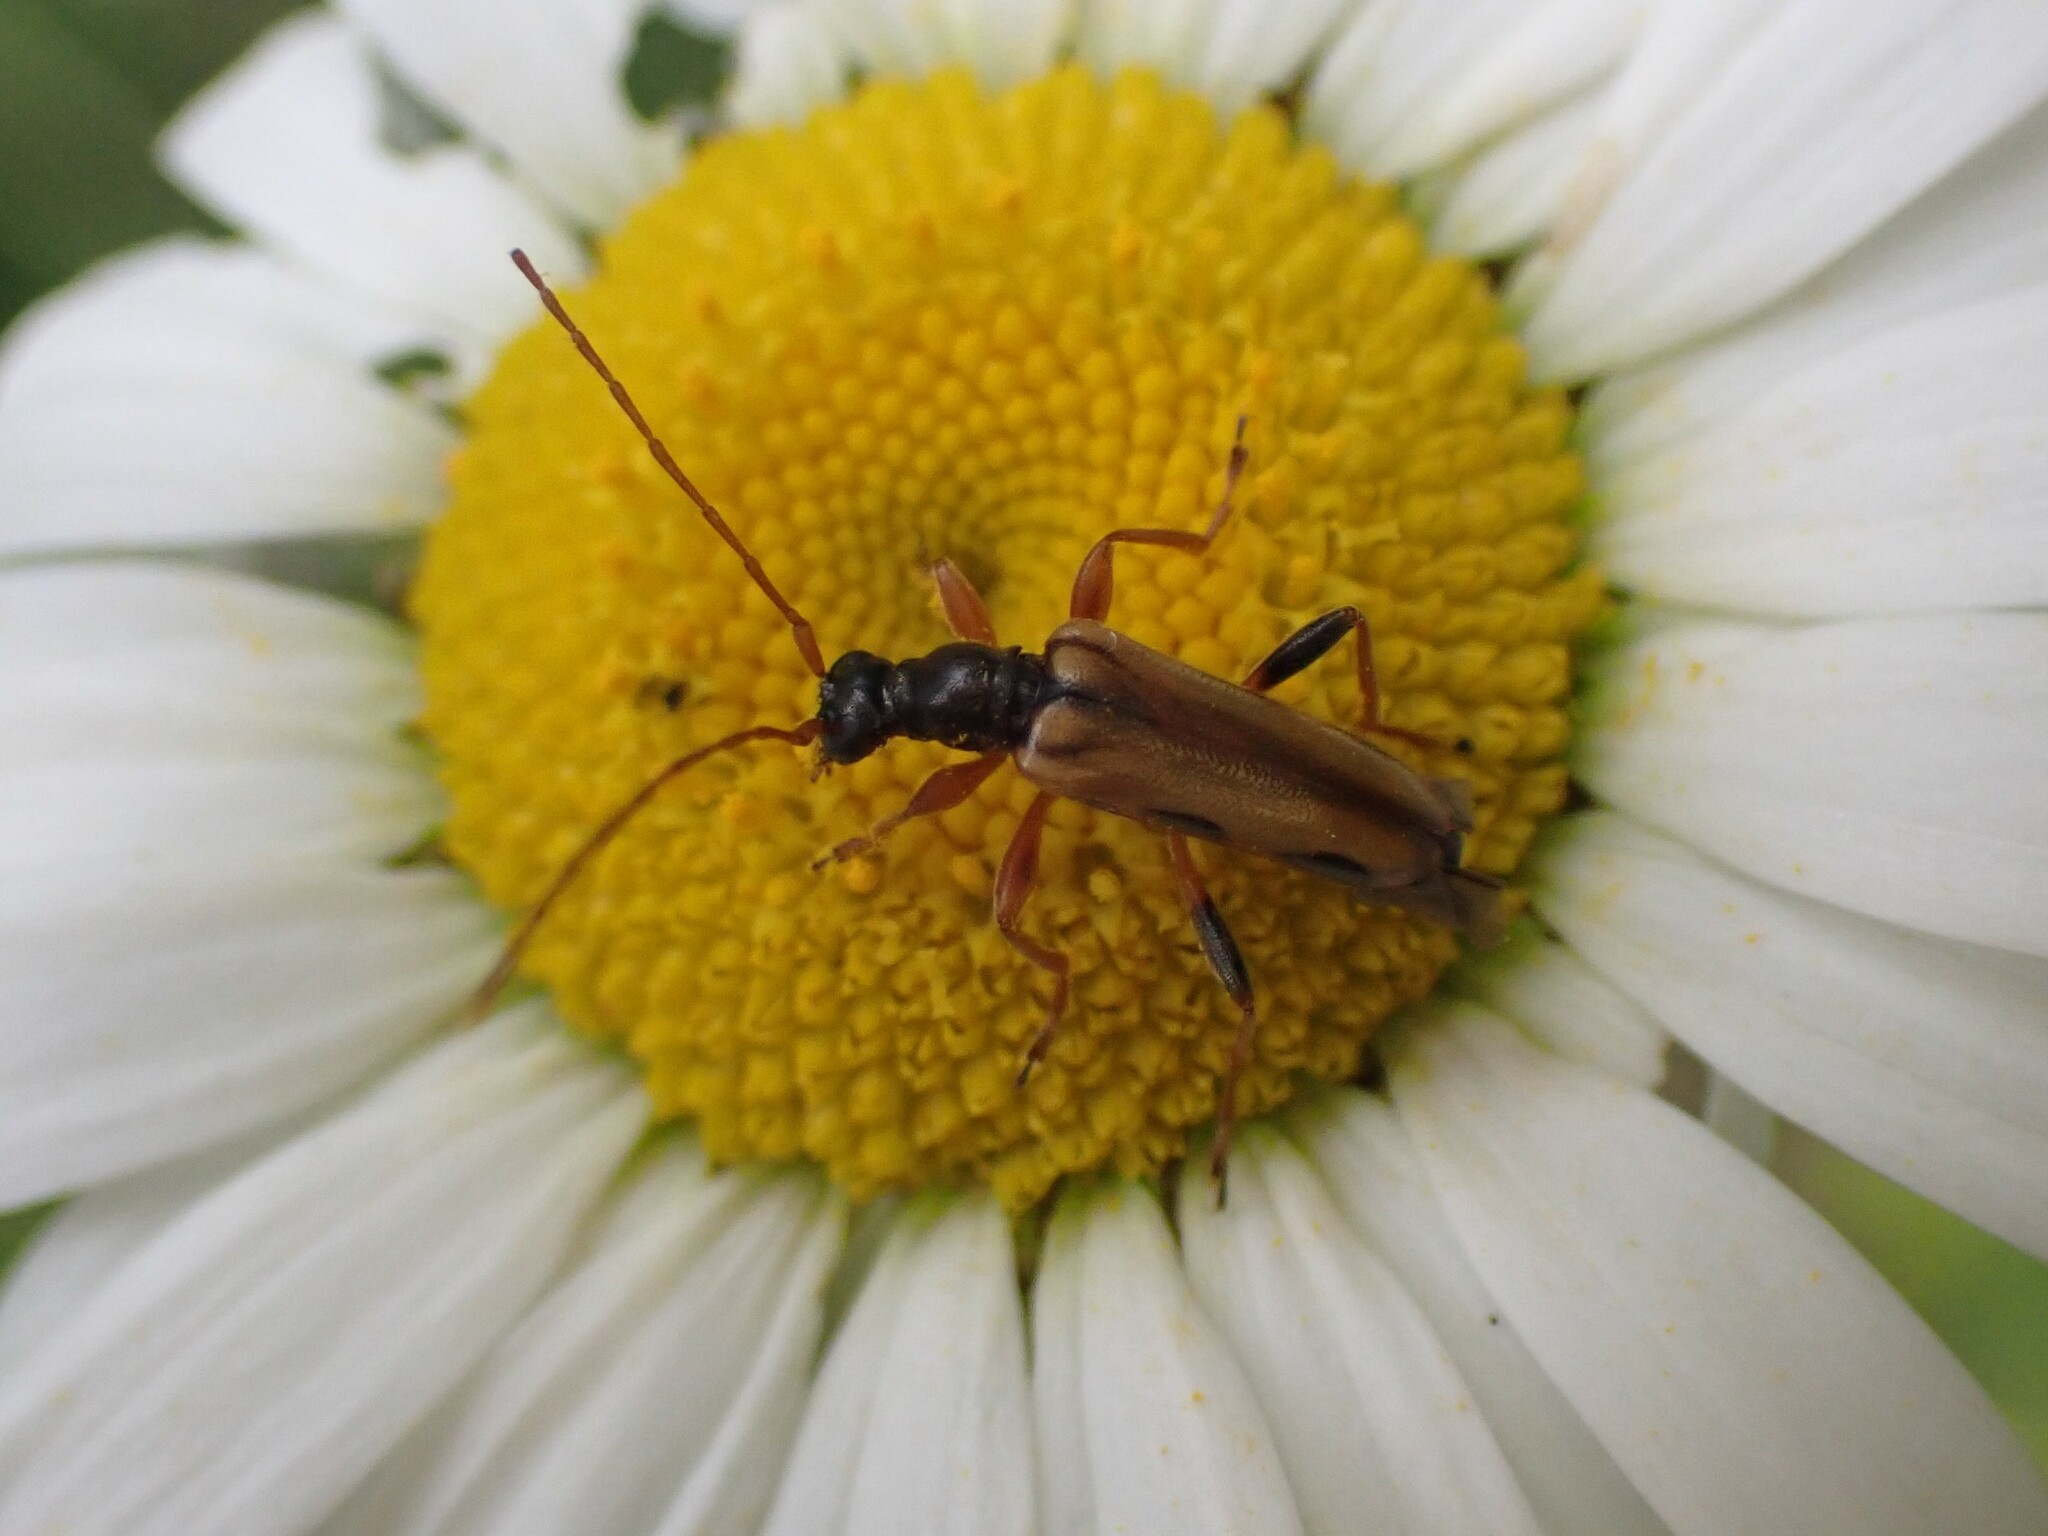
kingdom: Animalia
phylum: Arthropoda
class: Insecta
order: Coleoptera
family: Cerambycidae
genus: Pidonia
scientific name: Pidonia scripta
